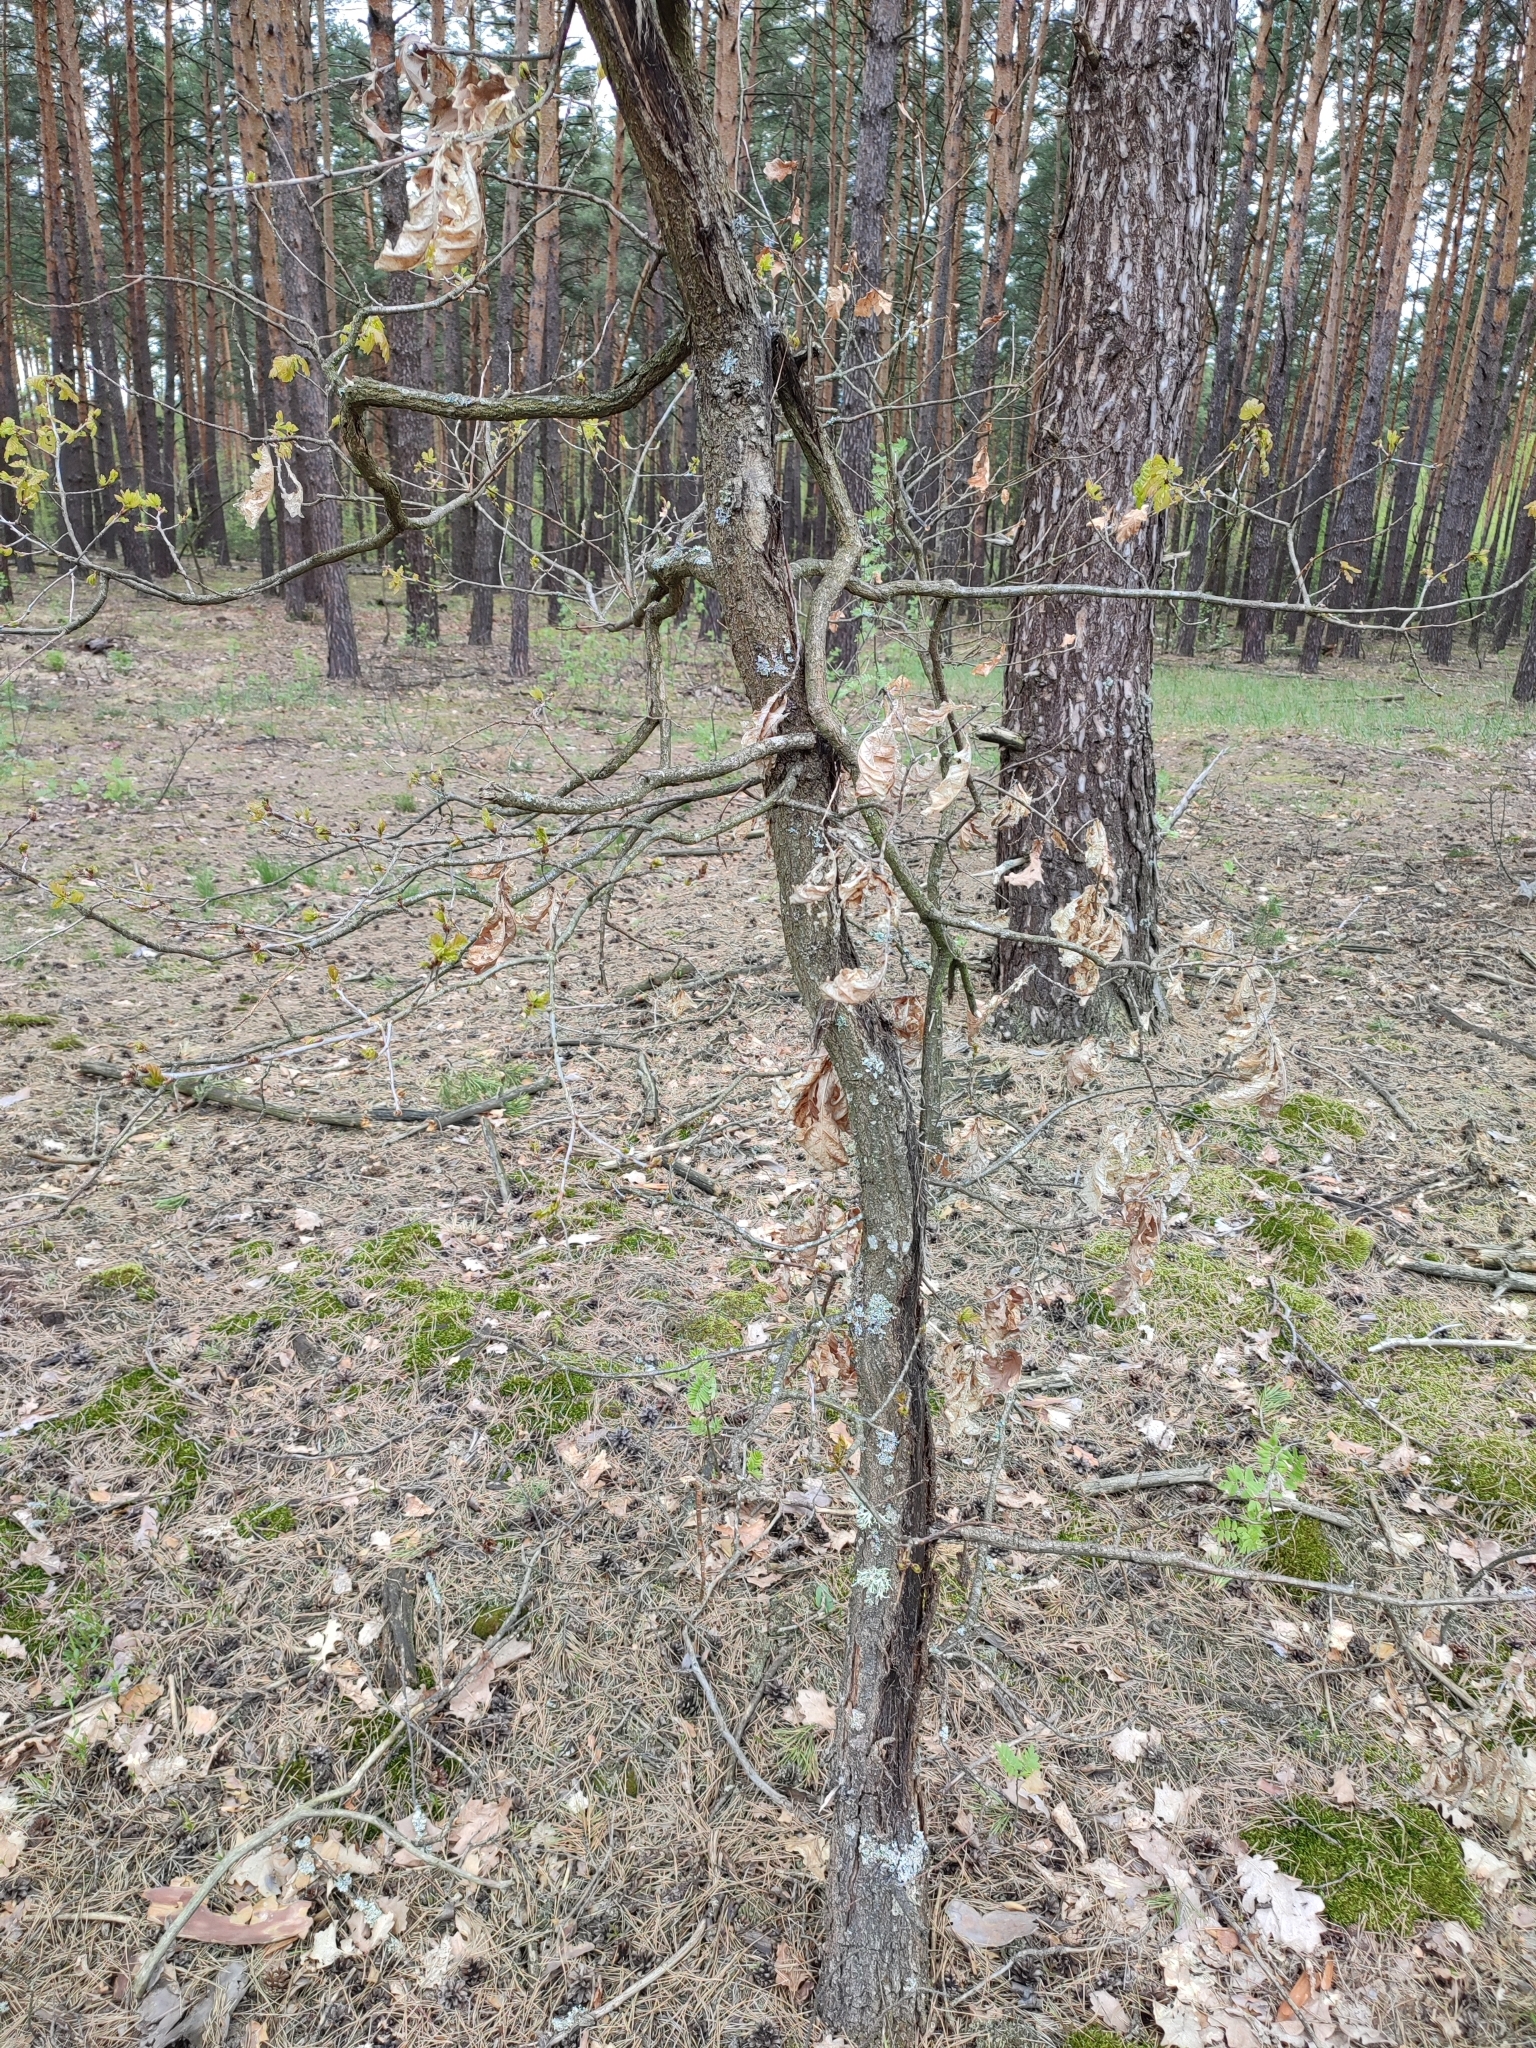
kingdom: Plantae
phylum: Tracheophyta
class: Magnoliopsida
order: Fagales
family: Fagaceae
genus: Quercus
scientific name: Quercus robur
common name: Pedunculate oak
